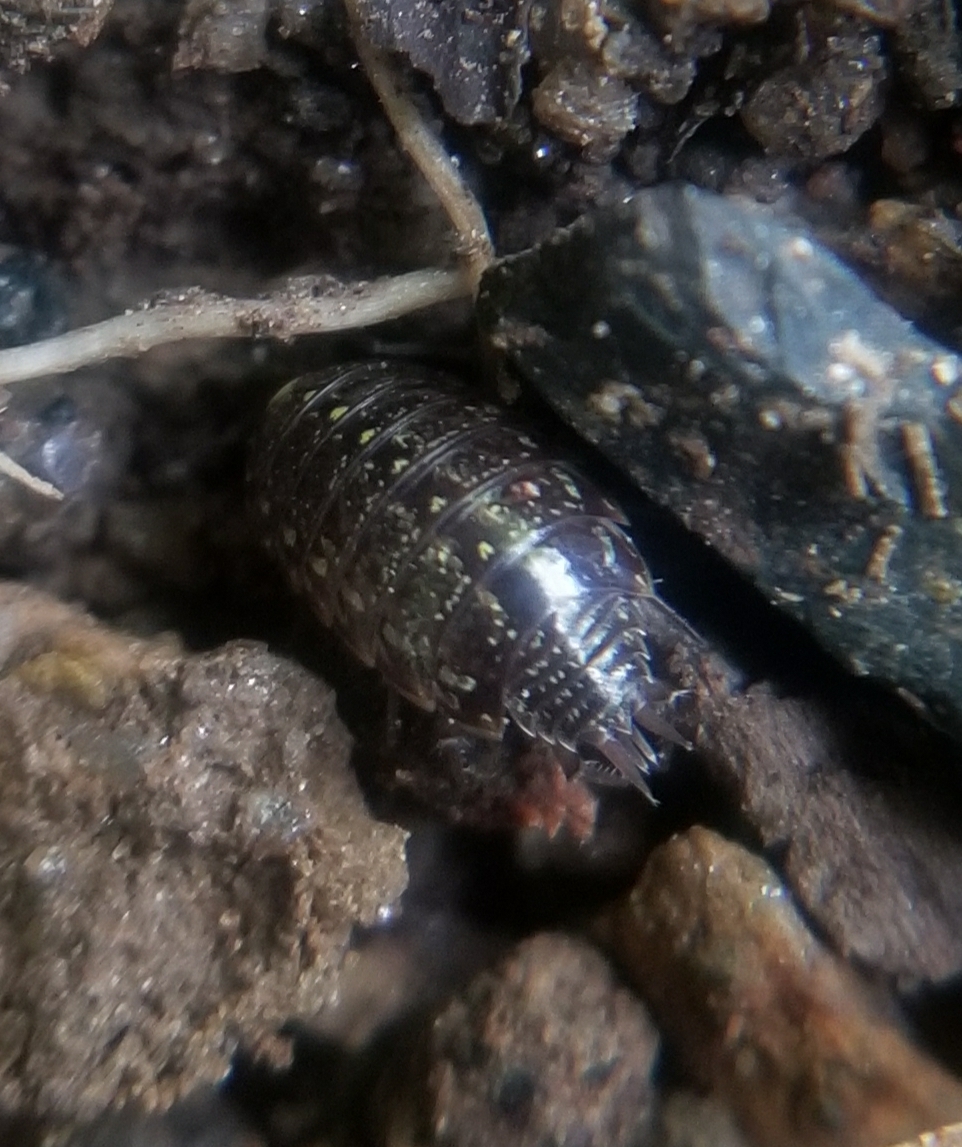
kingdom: Animalia
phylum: Arthropoda
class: Malacostraca
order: Isopoda
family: Philosciidae
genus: Philoscia
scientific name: Philoscia muscorum
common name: Common striped woodlouse
